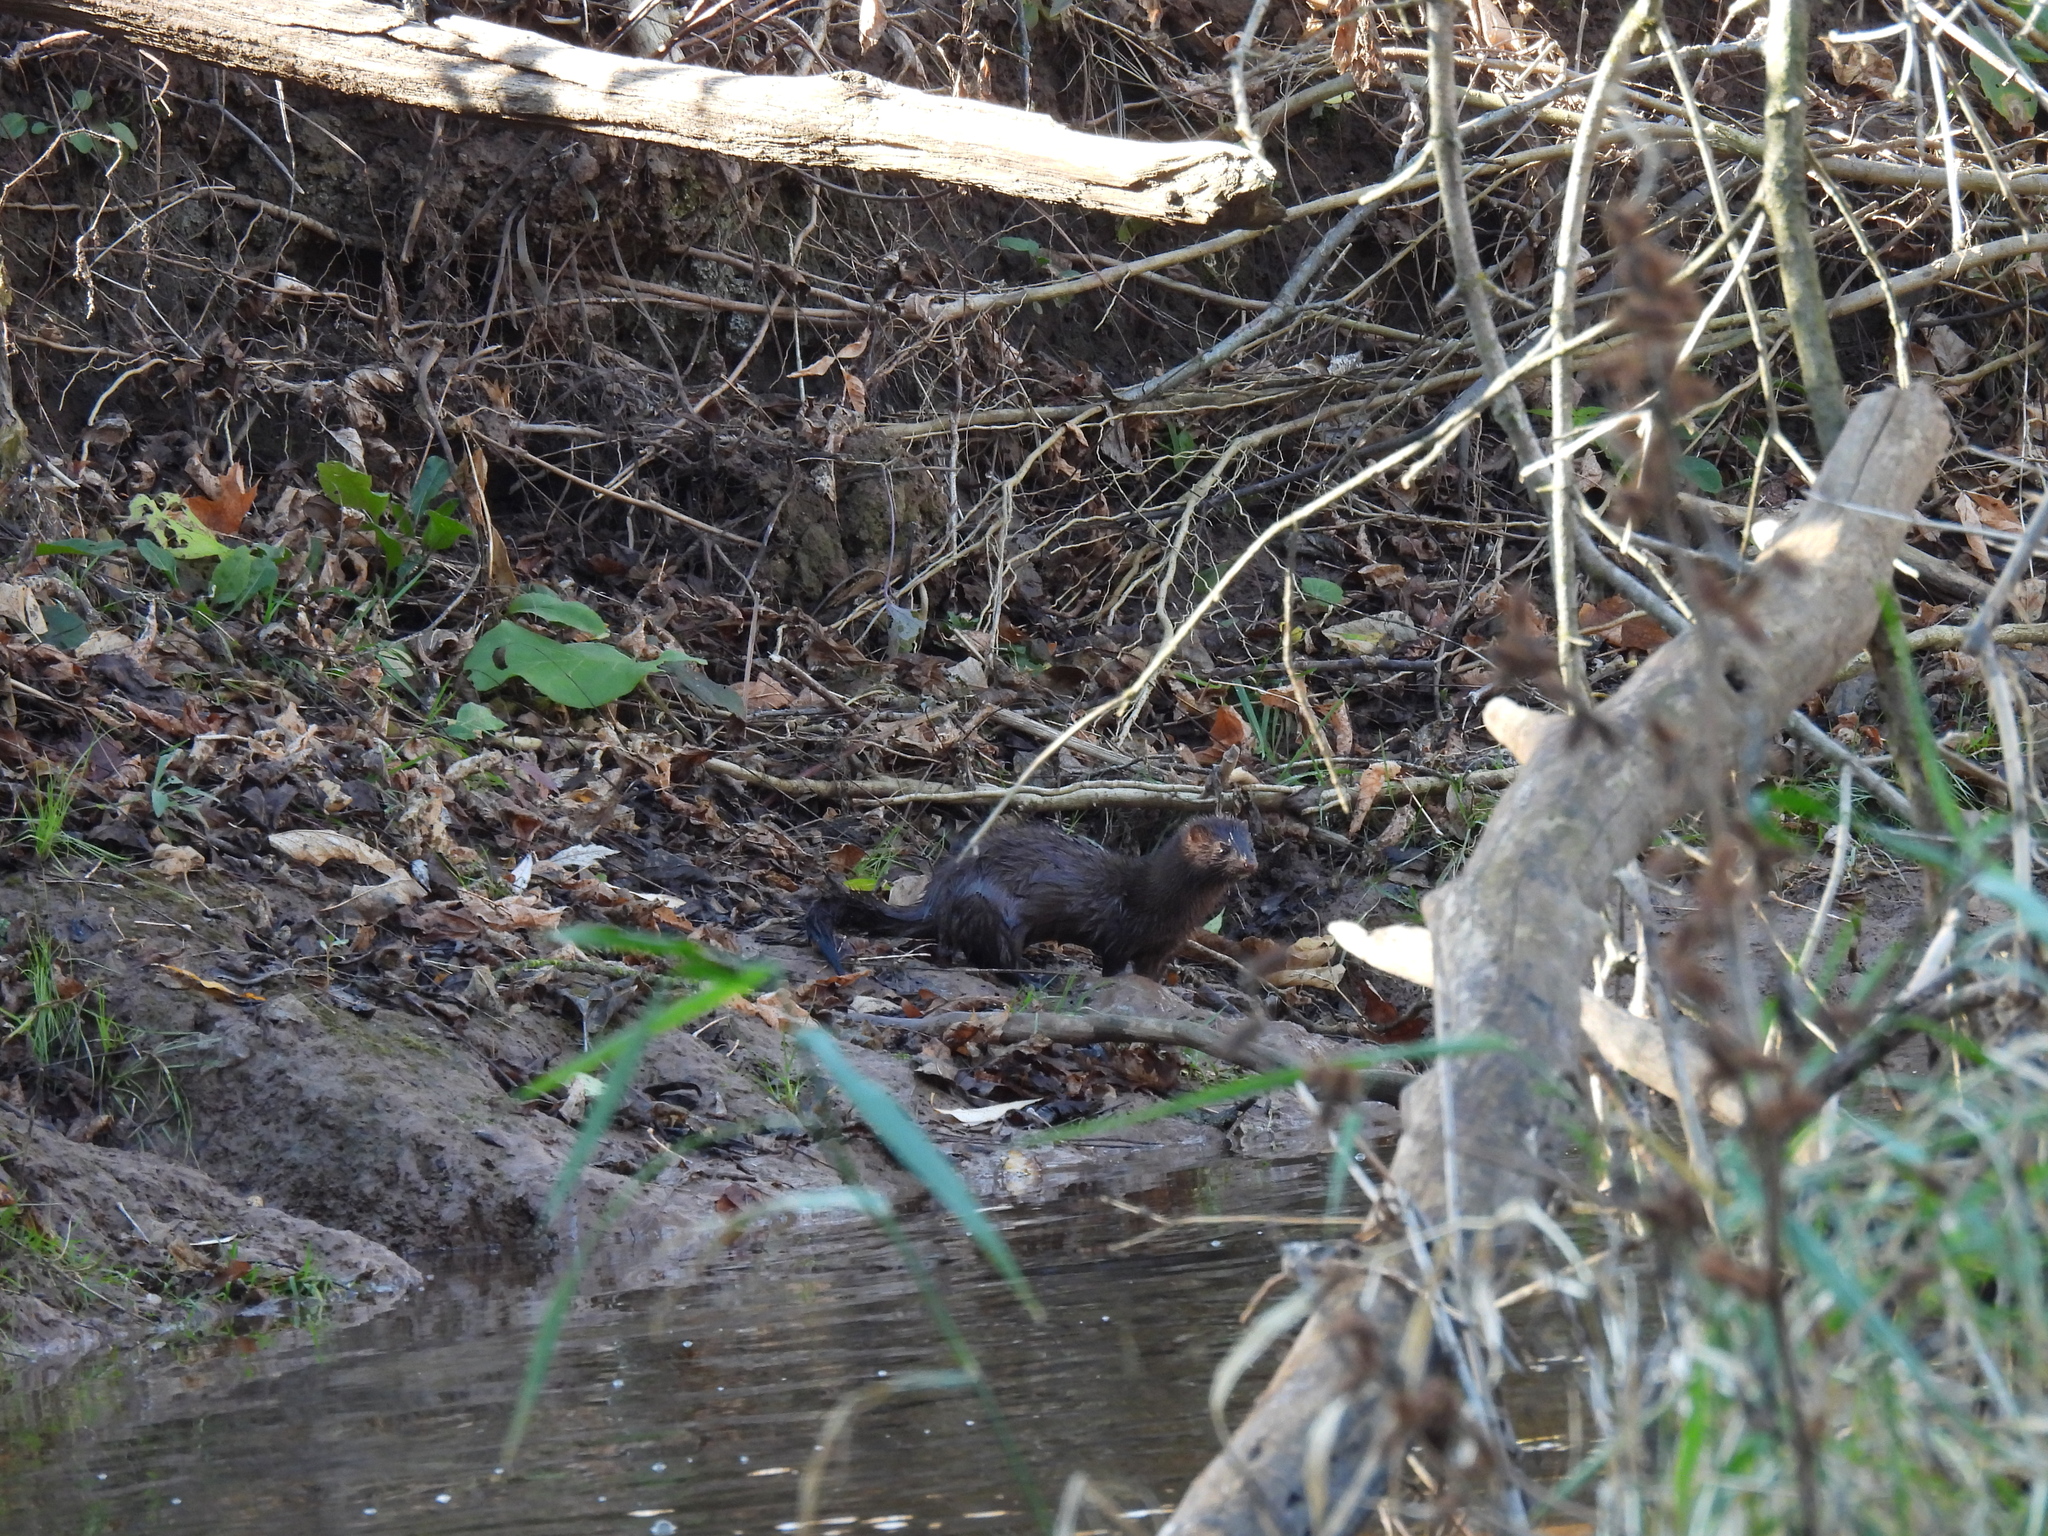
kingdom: Animalia
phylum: Chordata
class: Mammalia
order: Carnivora
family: Mustelidae
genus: Mustela
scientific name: Mustela
